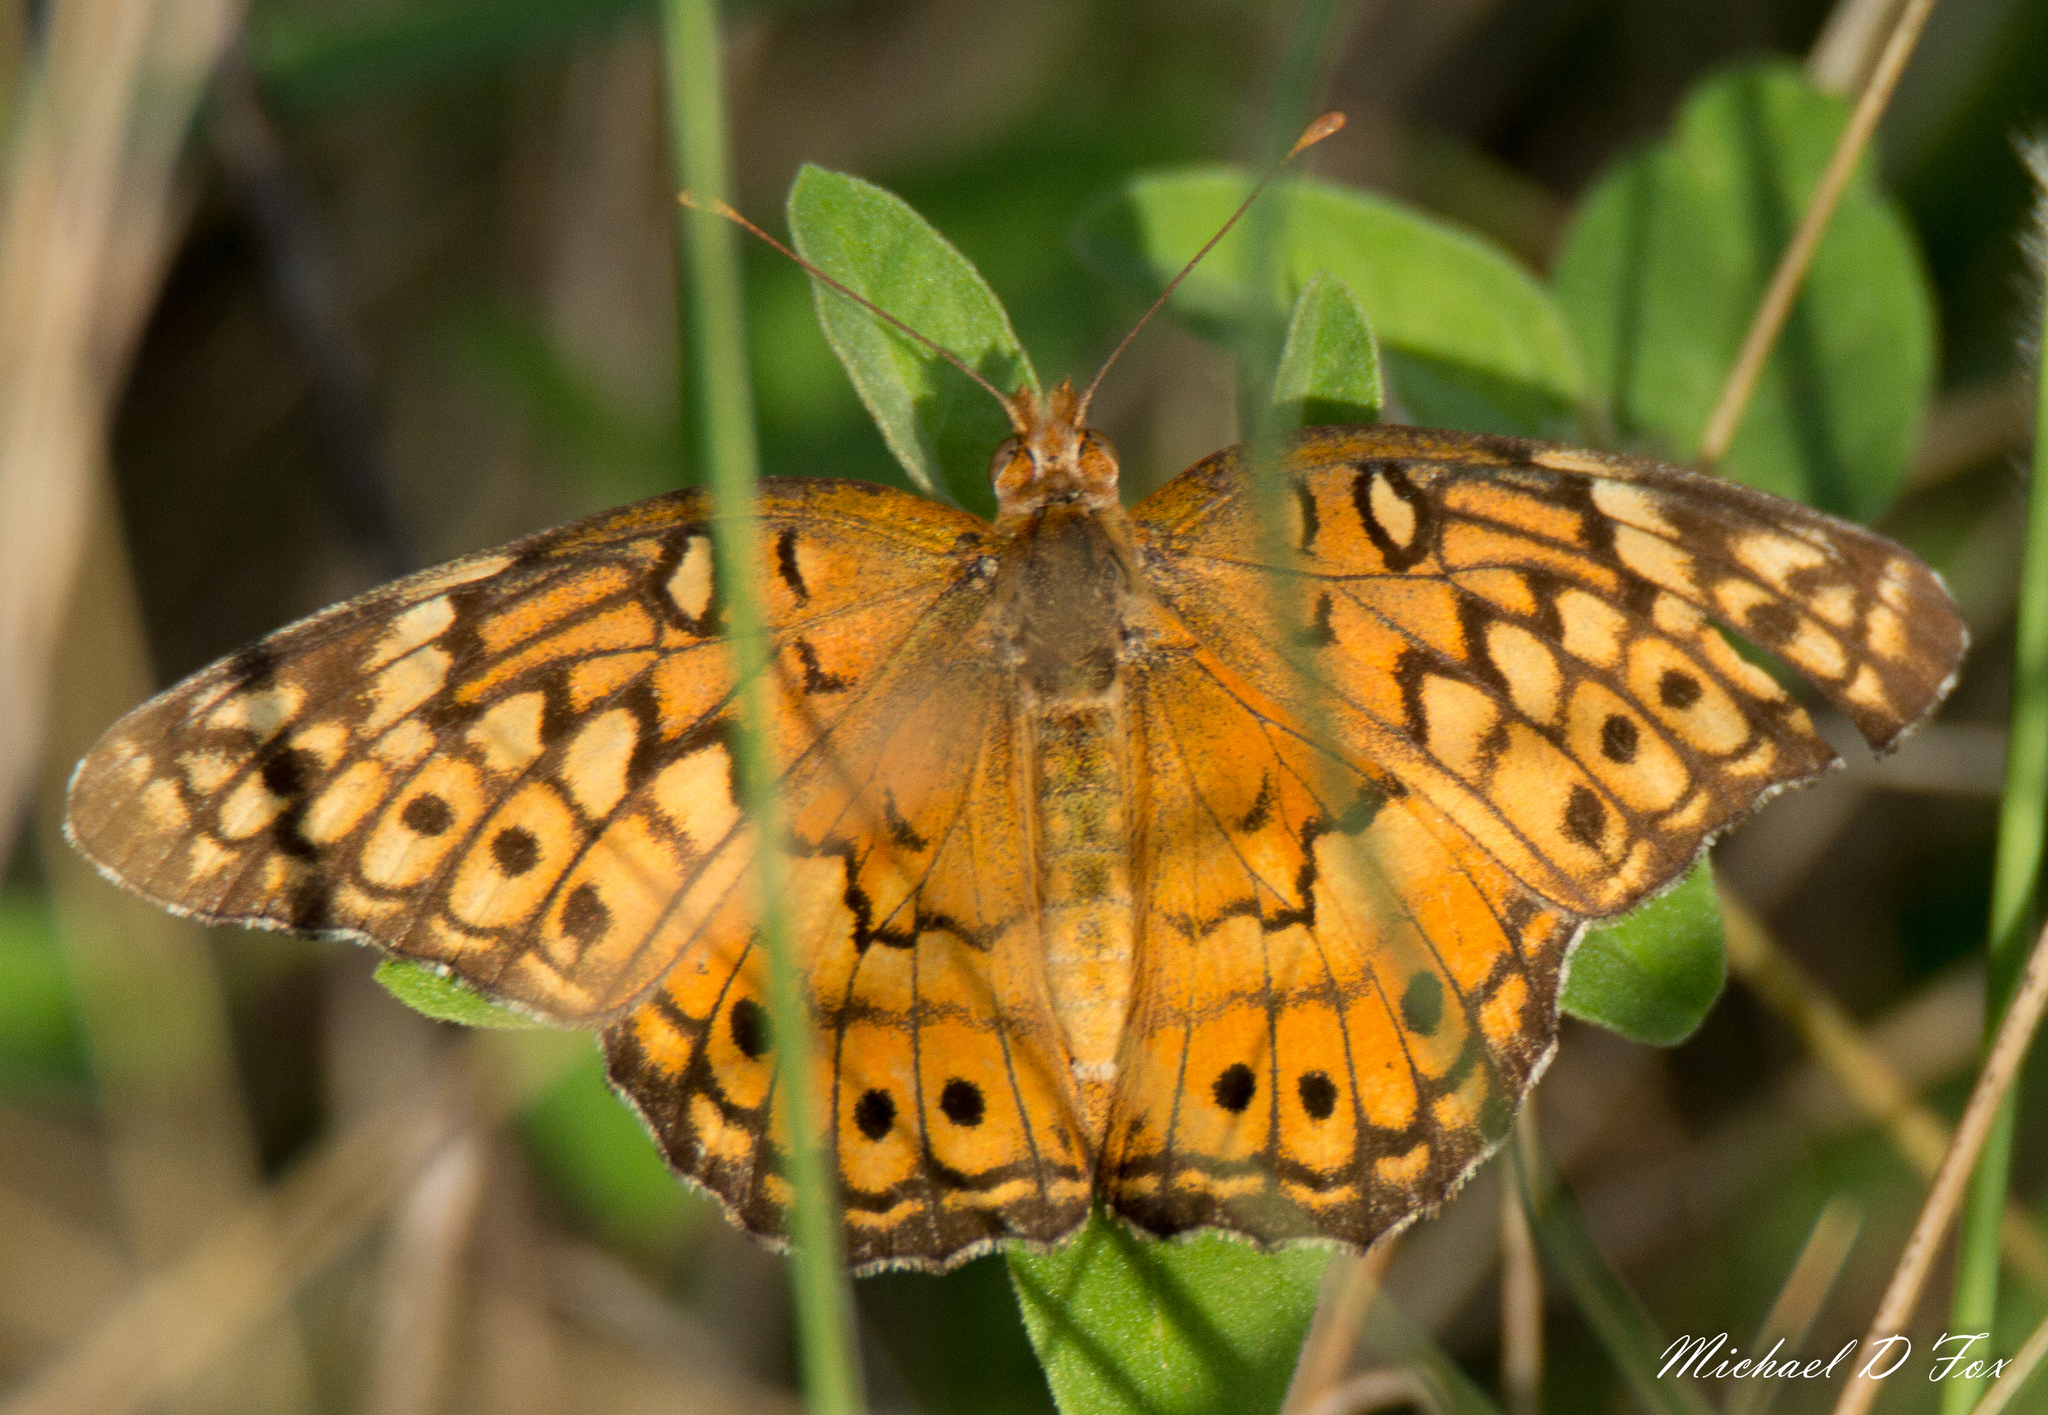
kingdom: Animalia
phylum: Arthropoda
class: Insecta
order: Lepidoptera
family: Nymphalidae
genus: Euptoieta
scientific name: Euptoieta claudia
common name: Variegated fritillary
